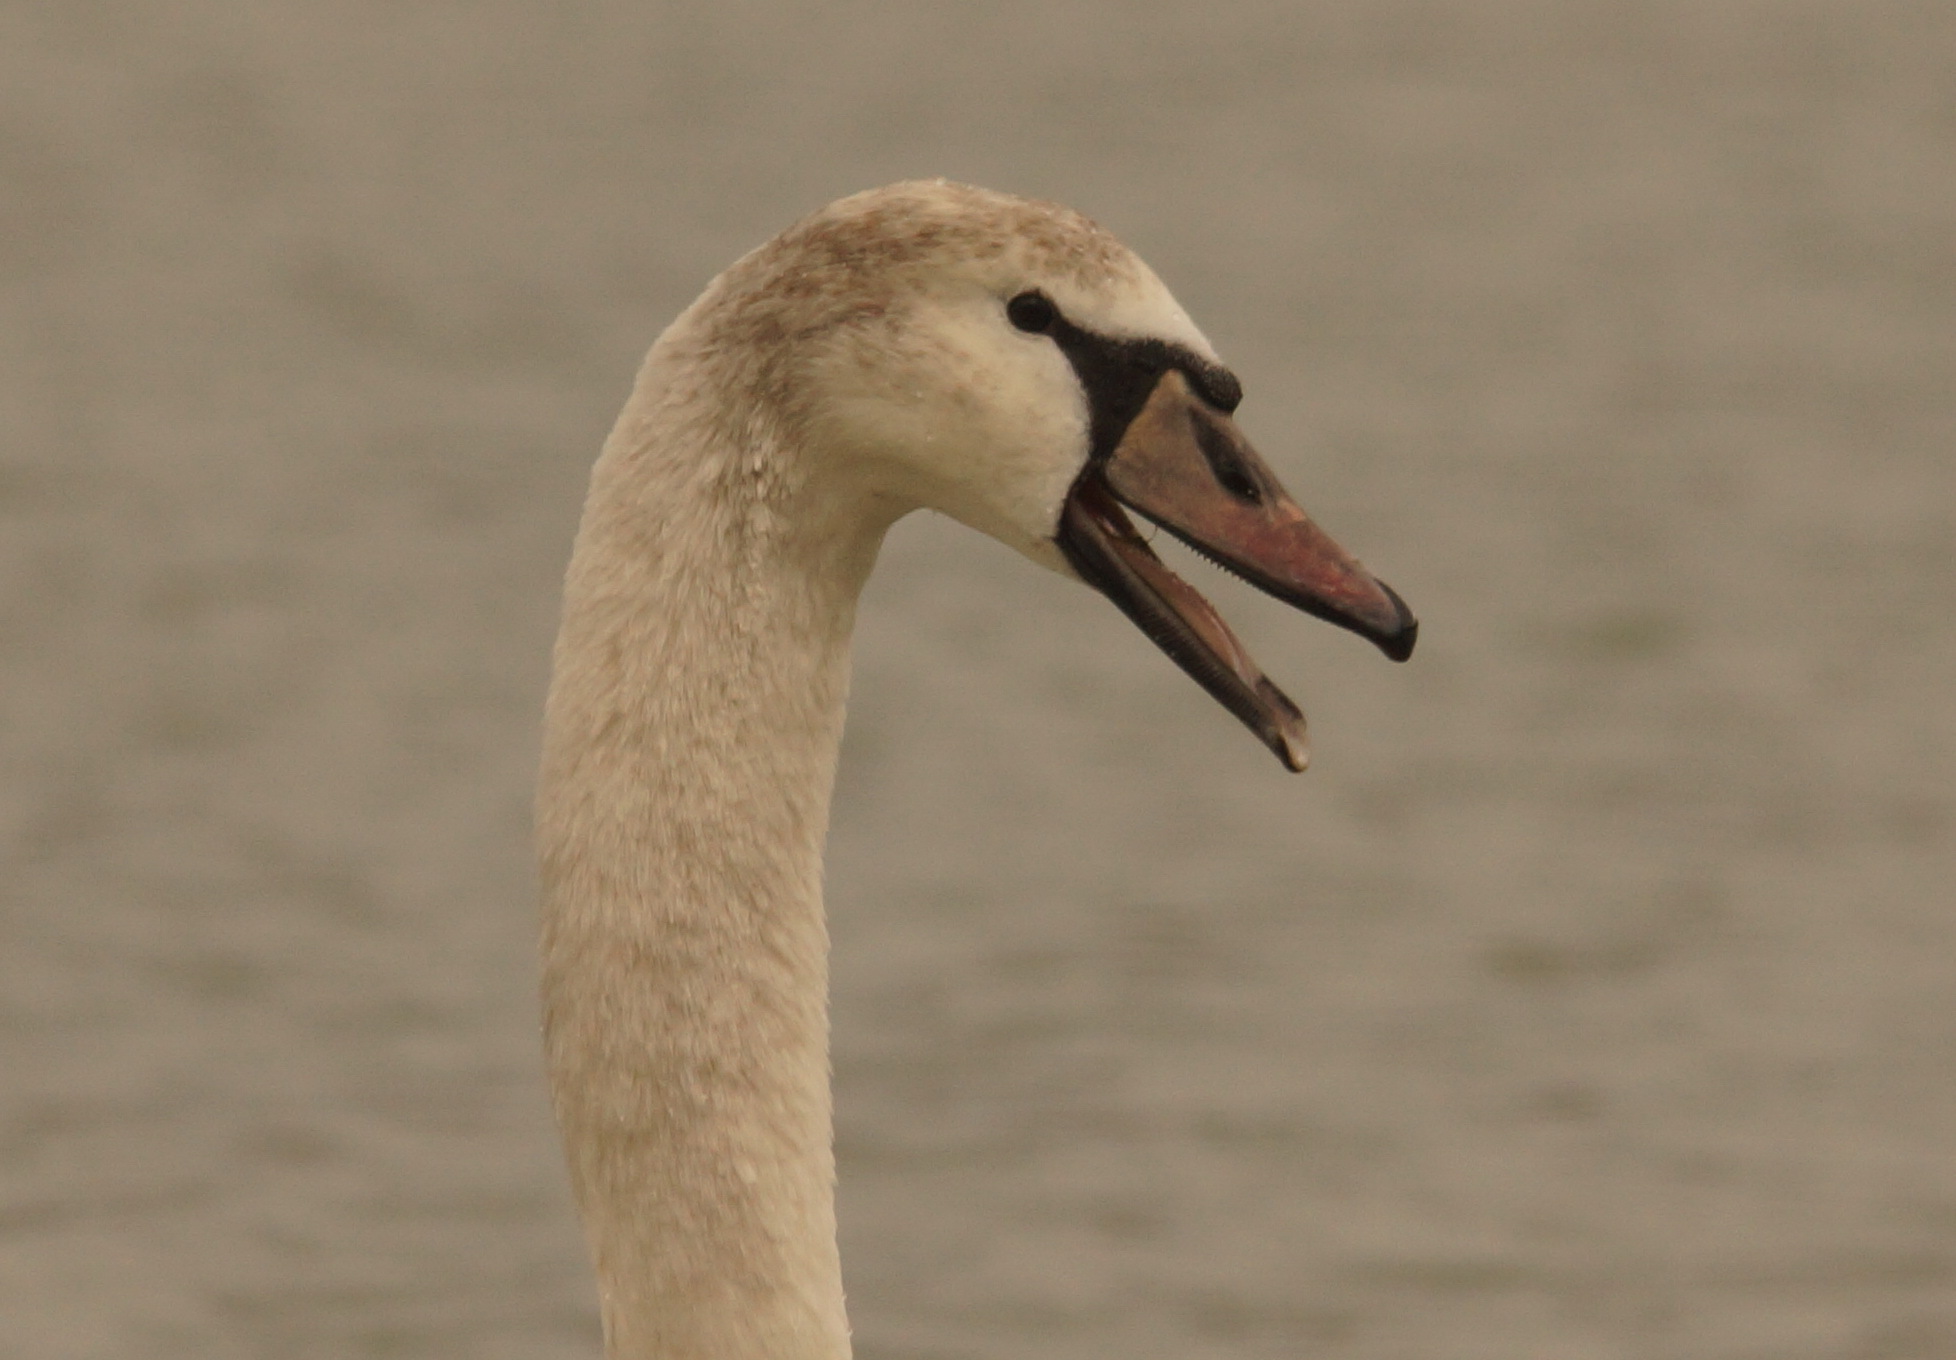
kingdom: Animalia
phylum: Chordata
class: Aves
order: Anseriformes
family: Anatidae
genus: Cygnus
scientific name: Cygnus olor
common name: Mute swan
